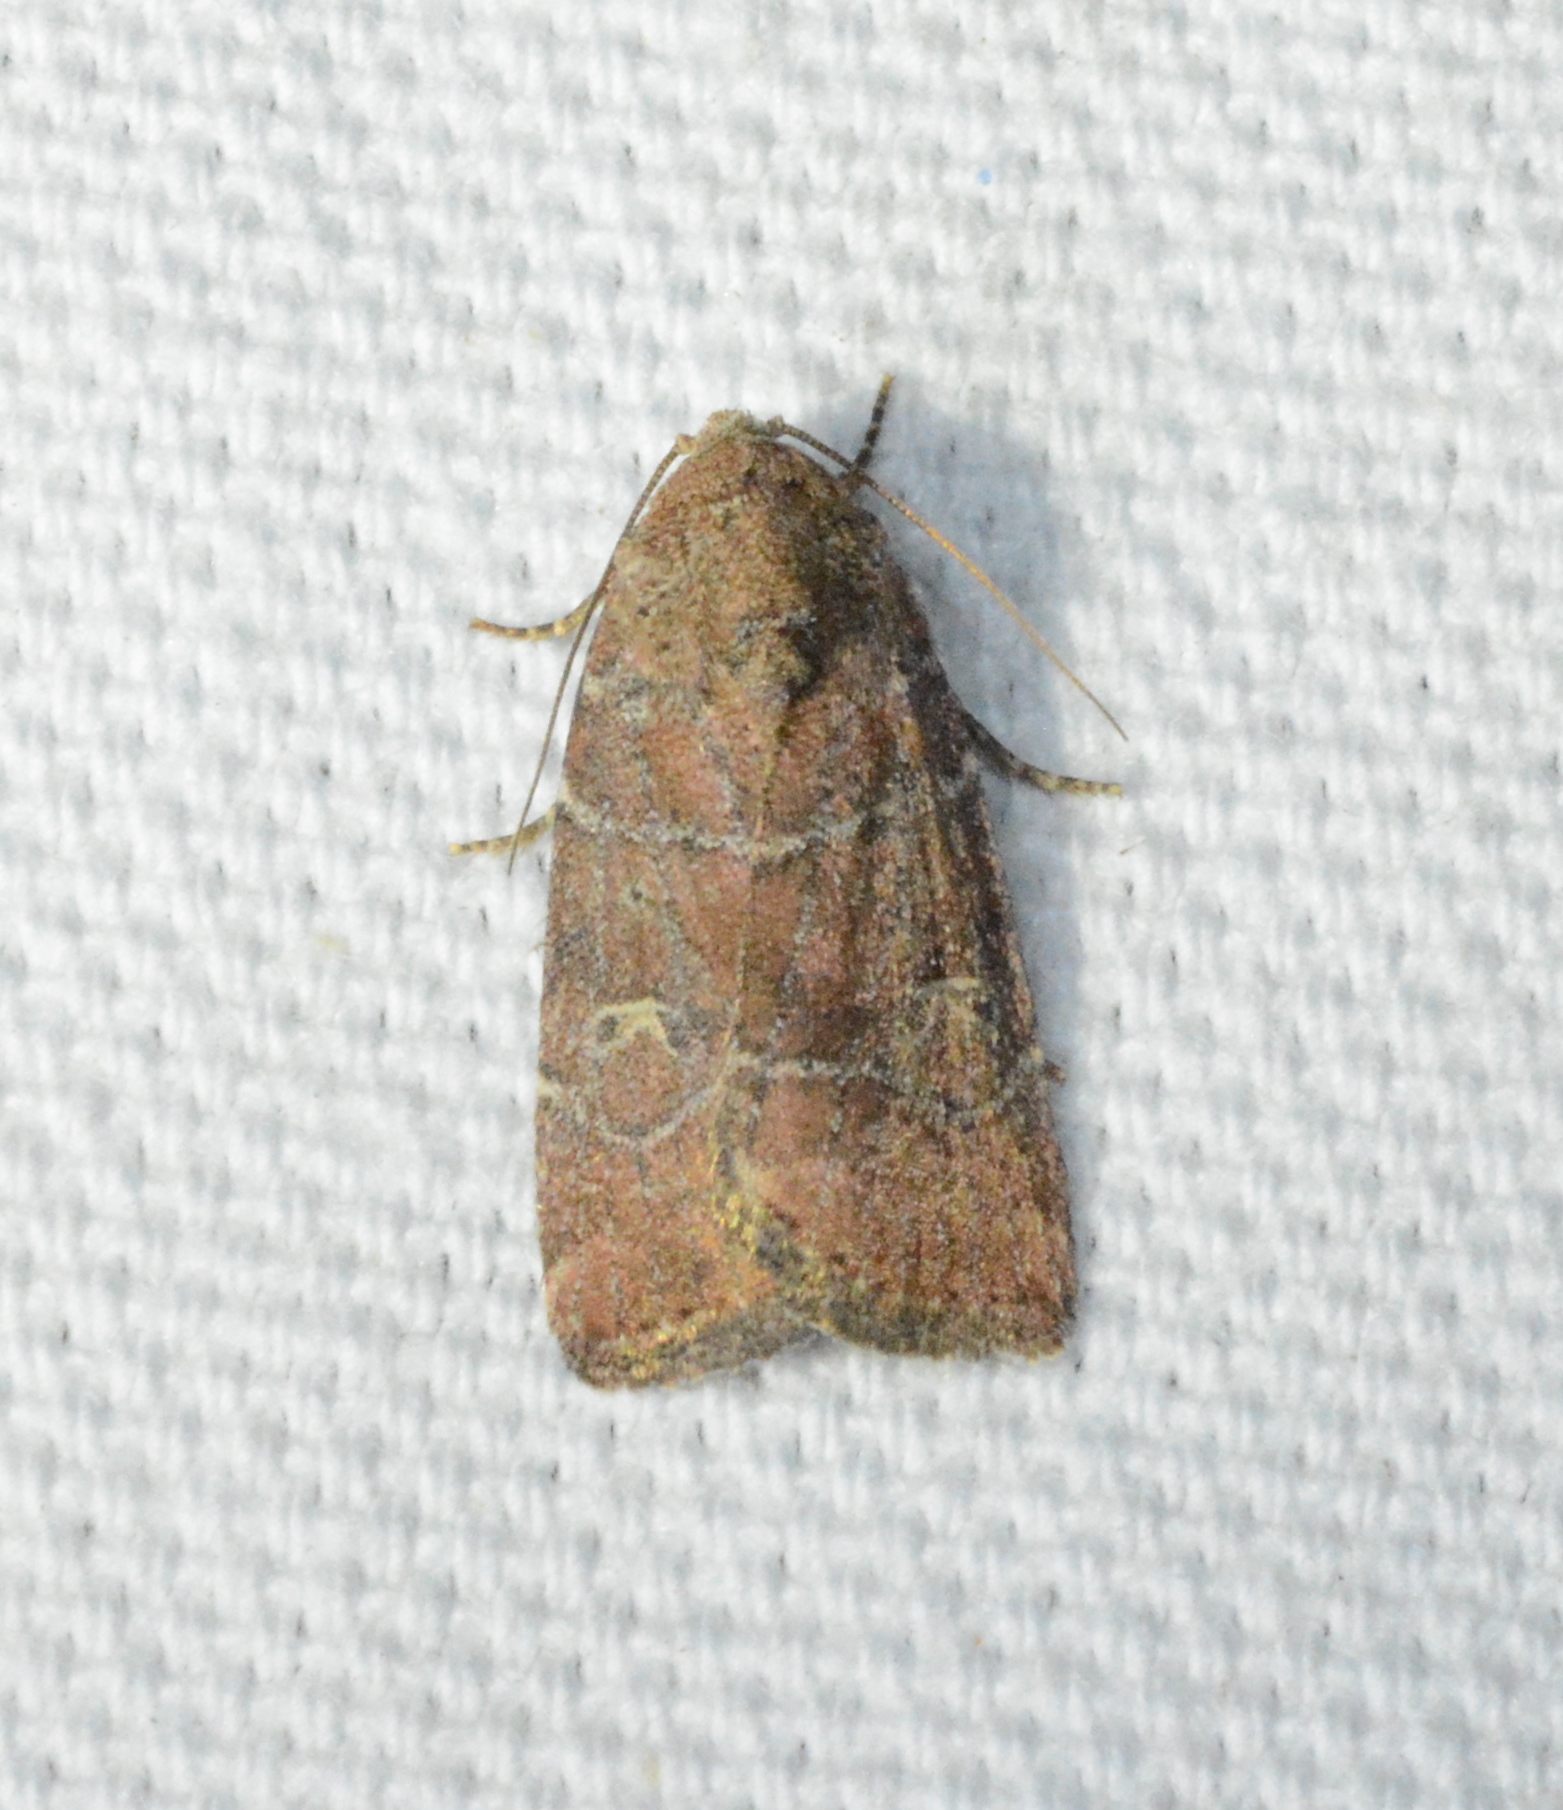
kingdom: Animalia
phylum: Arthropoda
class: Insecta
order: Lepidoptera
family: Noctuidae
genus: Elaphria
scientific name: Elaphria grata
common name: Grateful midget moth
